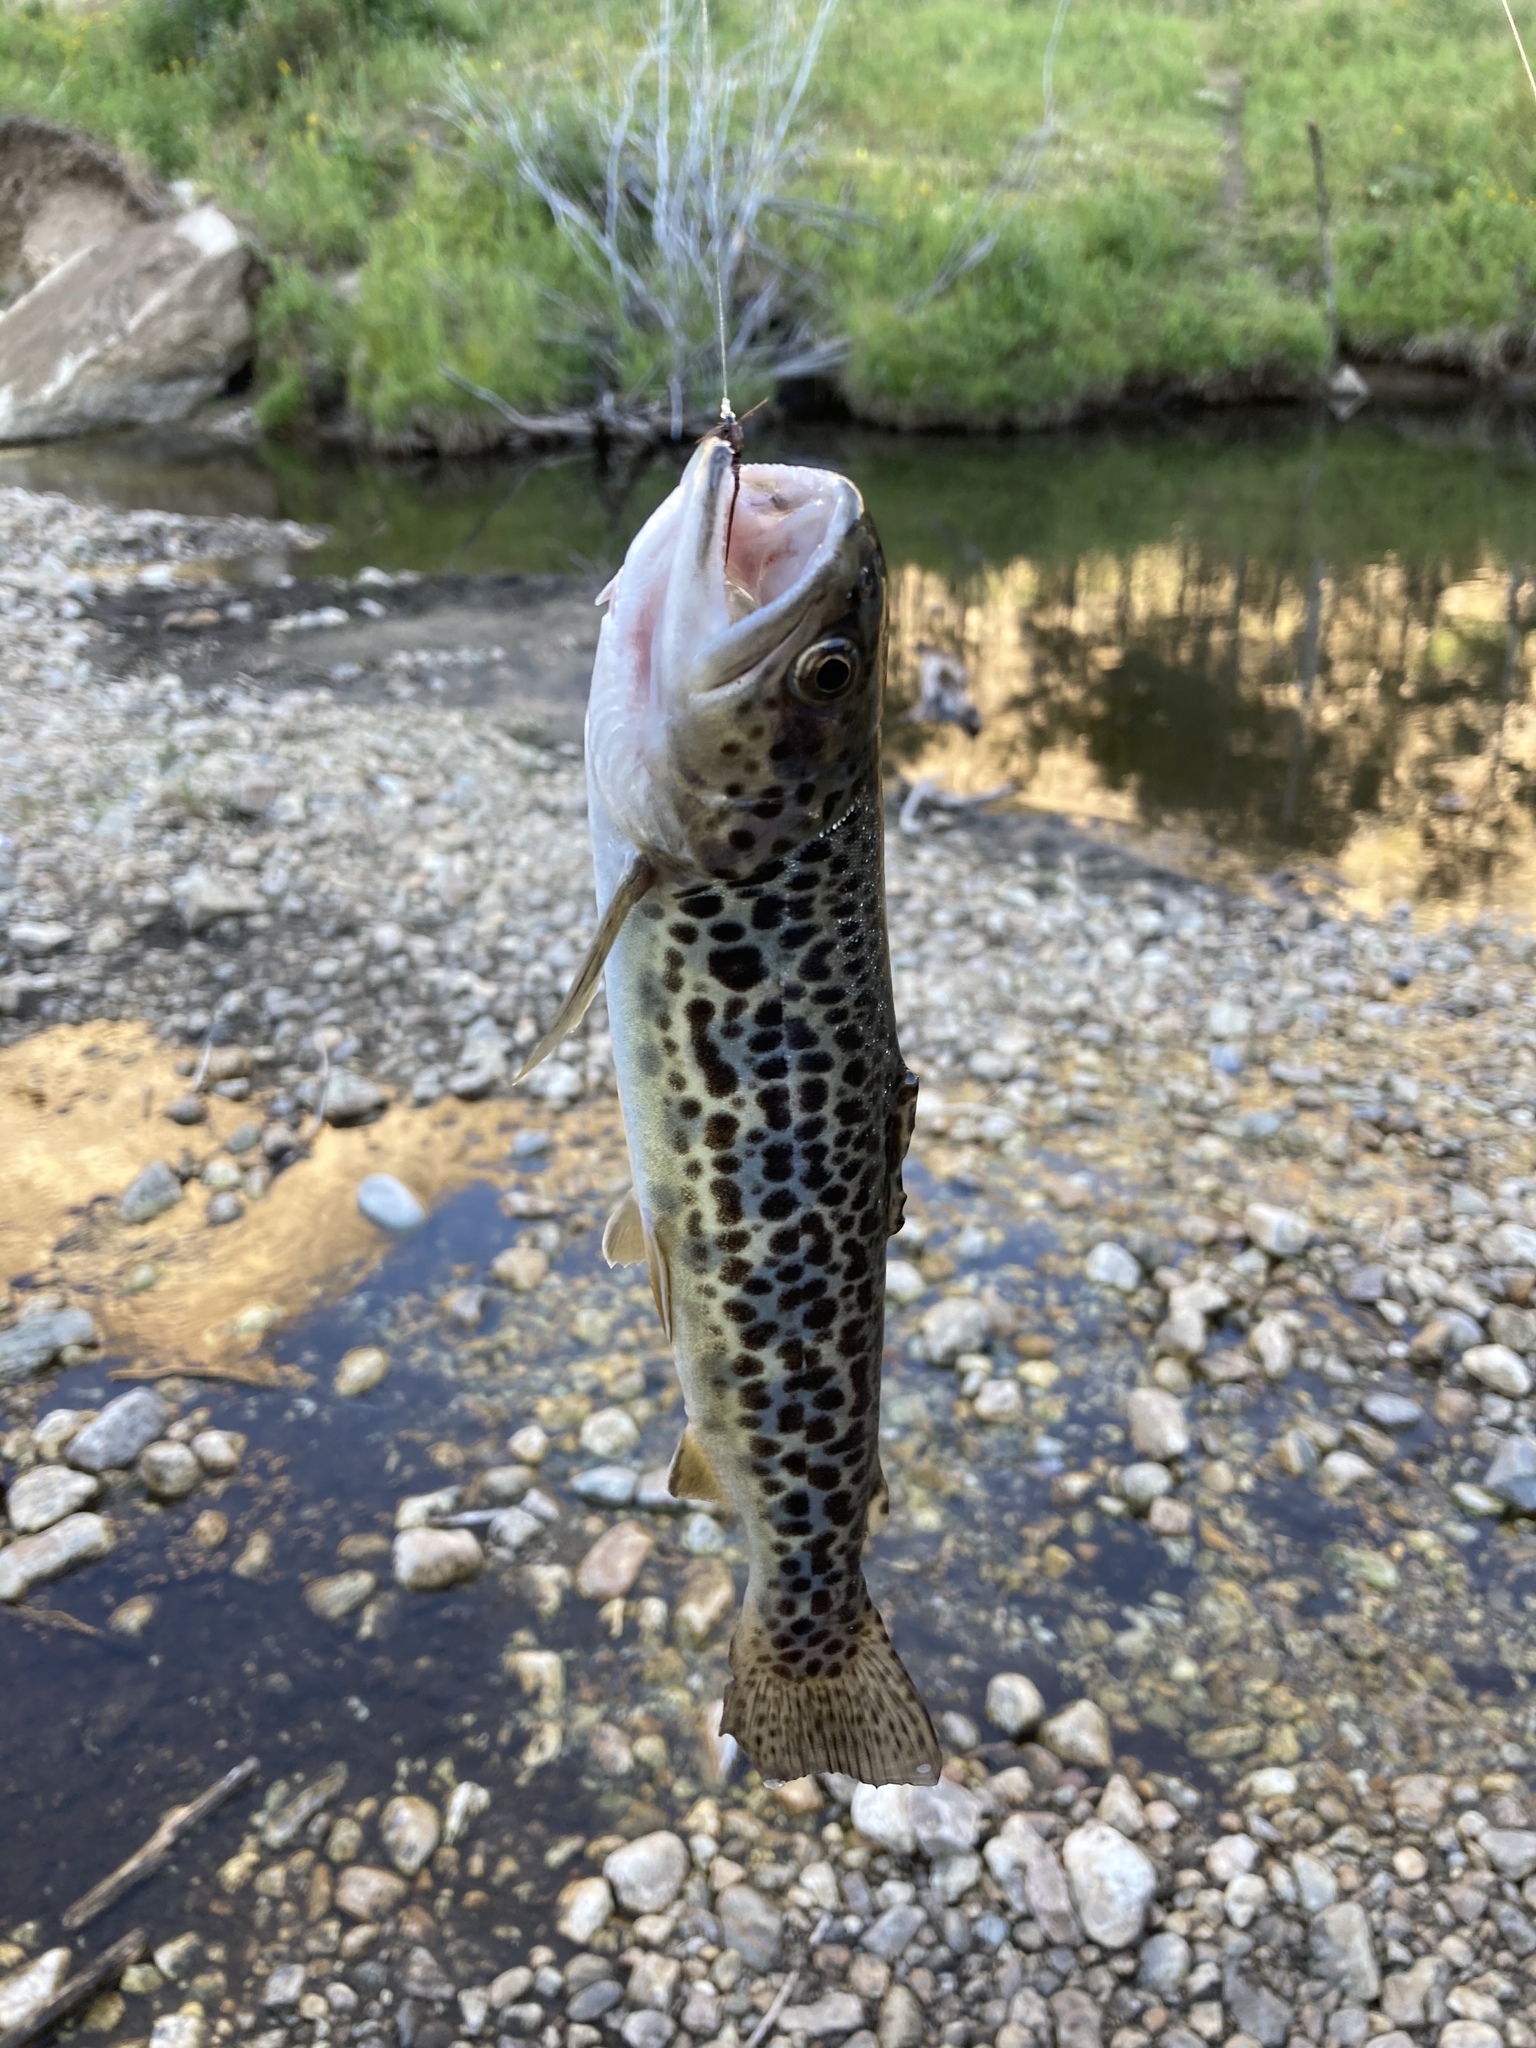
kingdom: Animalia
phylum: Chordata
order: Salmoniformes
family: Salmonidae
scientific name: Salmonidae
